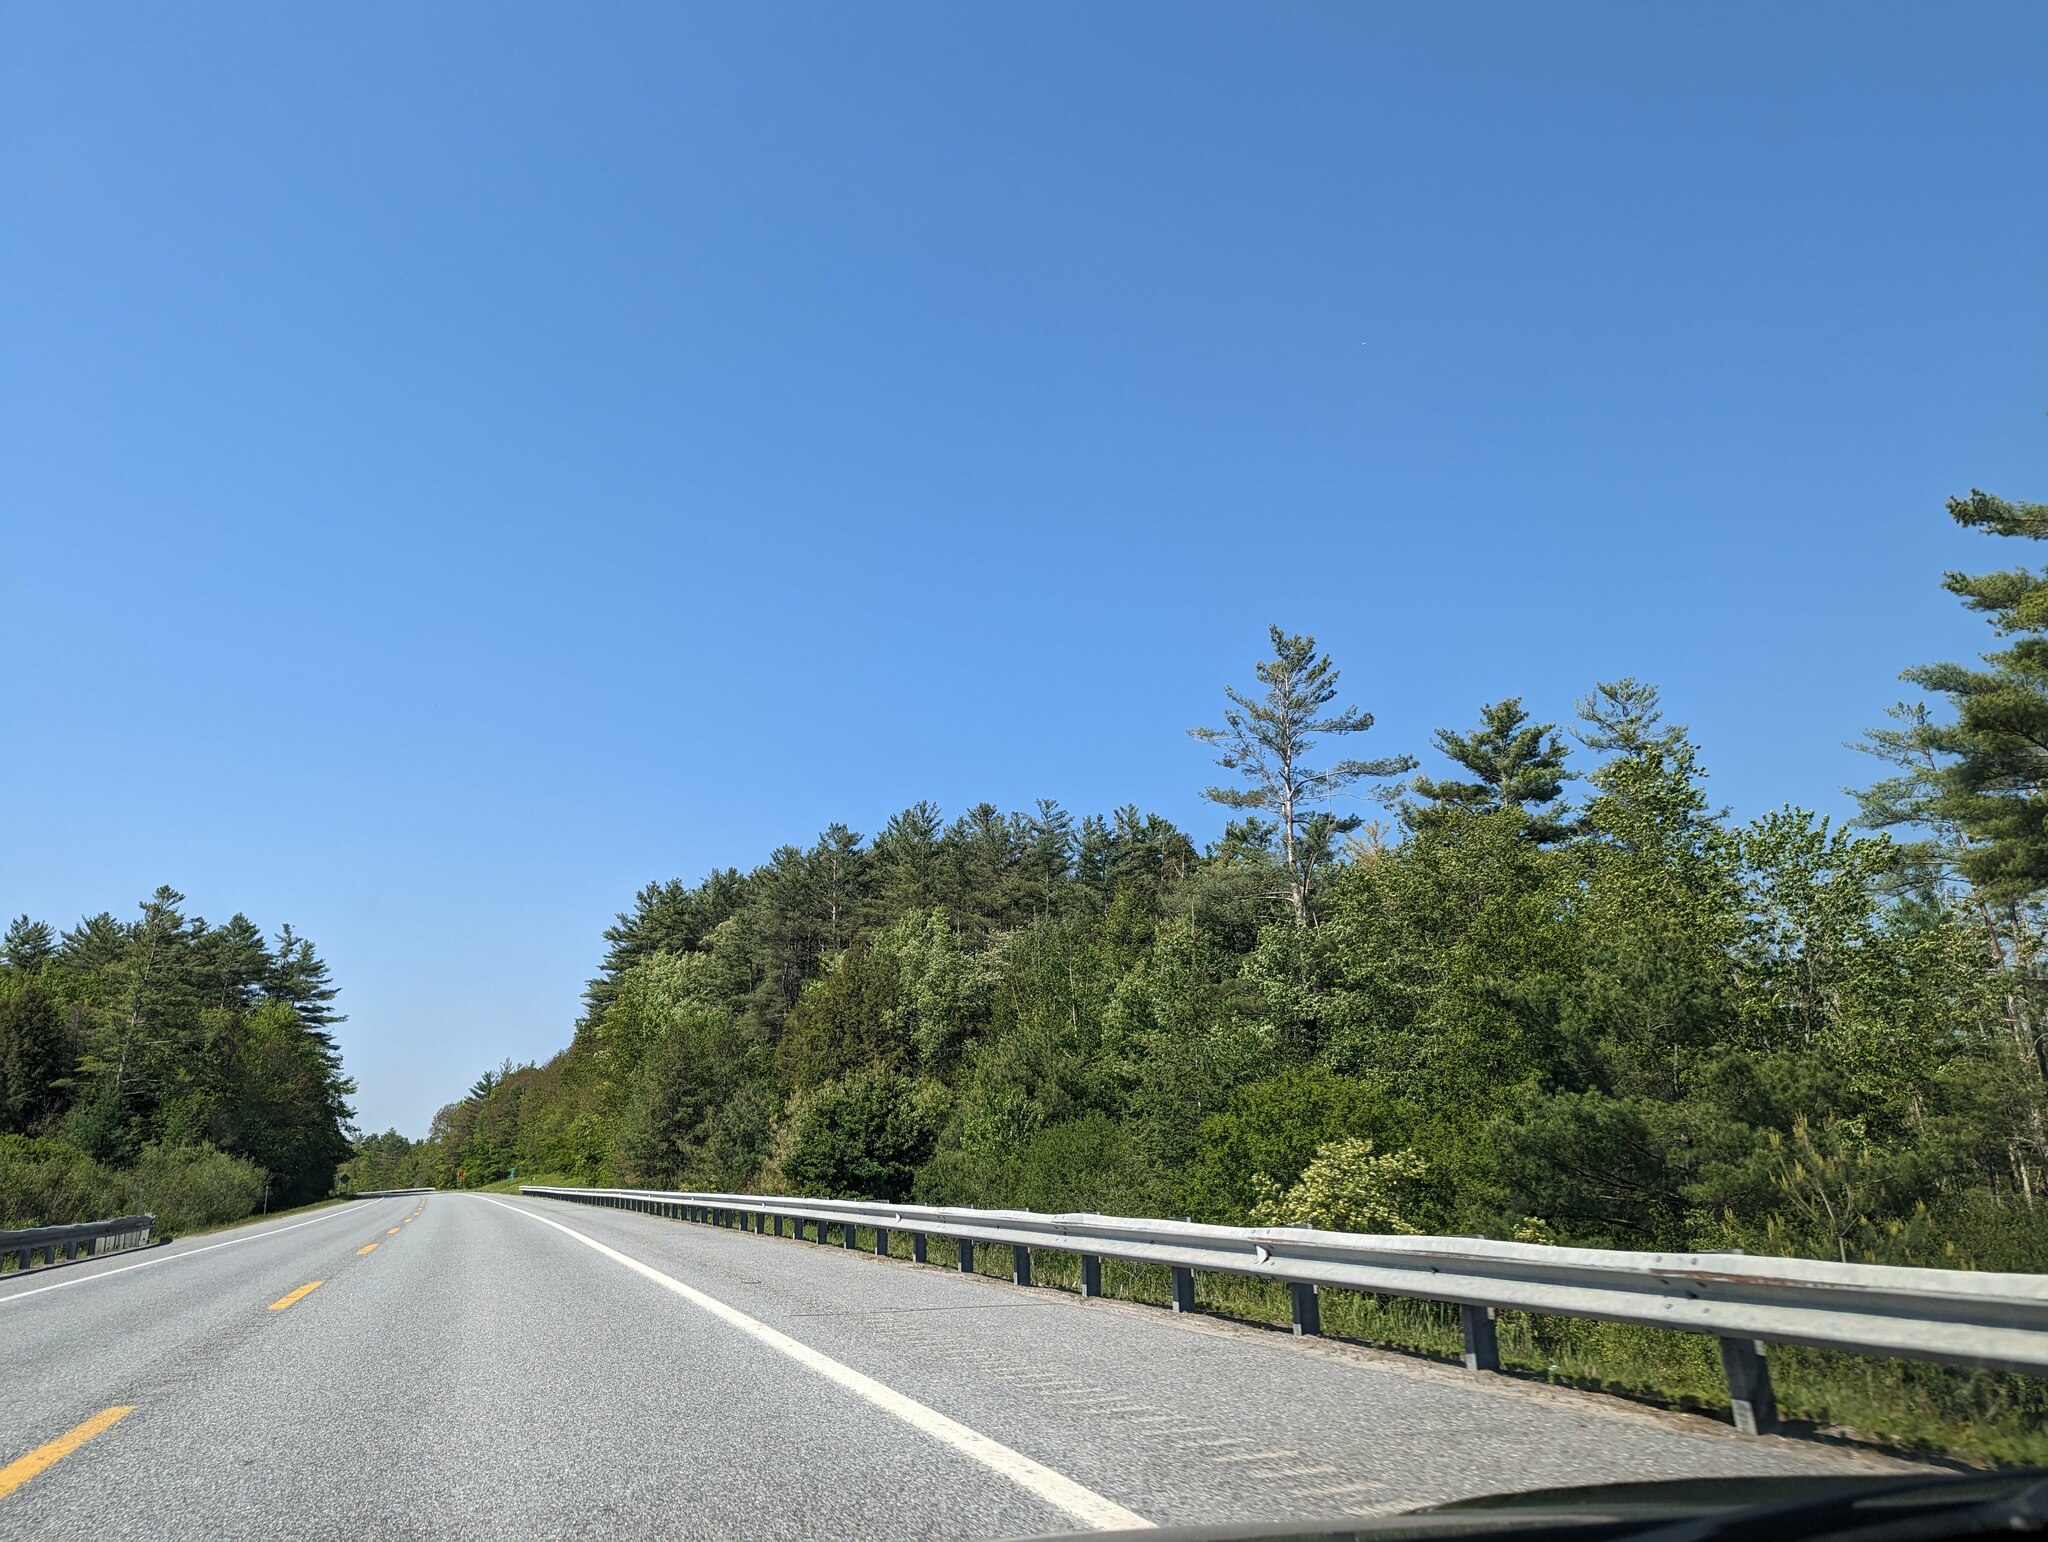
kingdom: Plantae
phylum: Tracheophyta
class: Pinopsida
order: Pinales
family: Pinaceae
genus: Pinus
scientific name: Pinus strobus
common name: Weymouth pine
